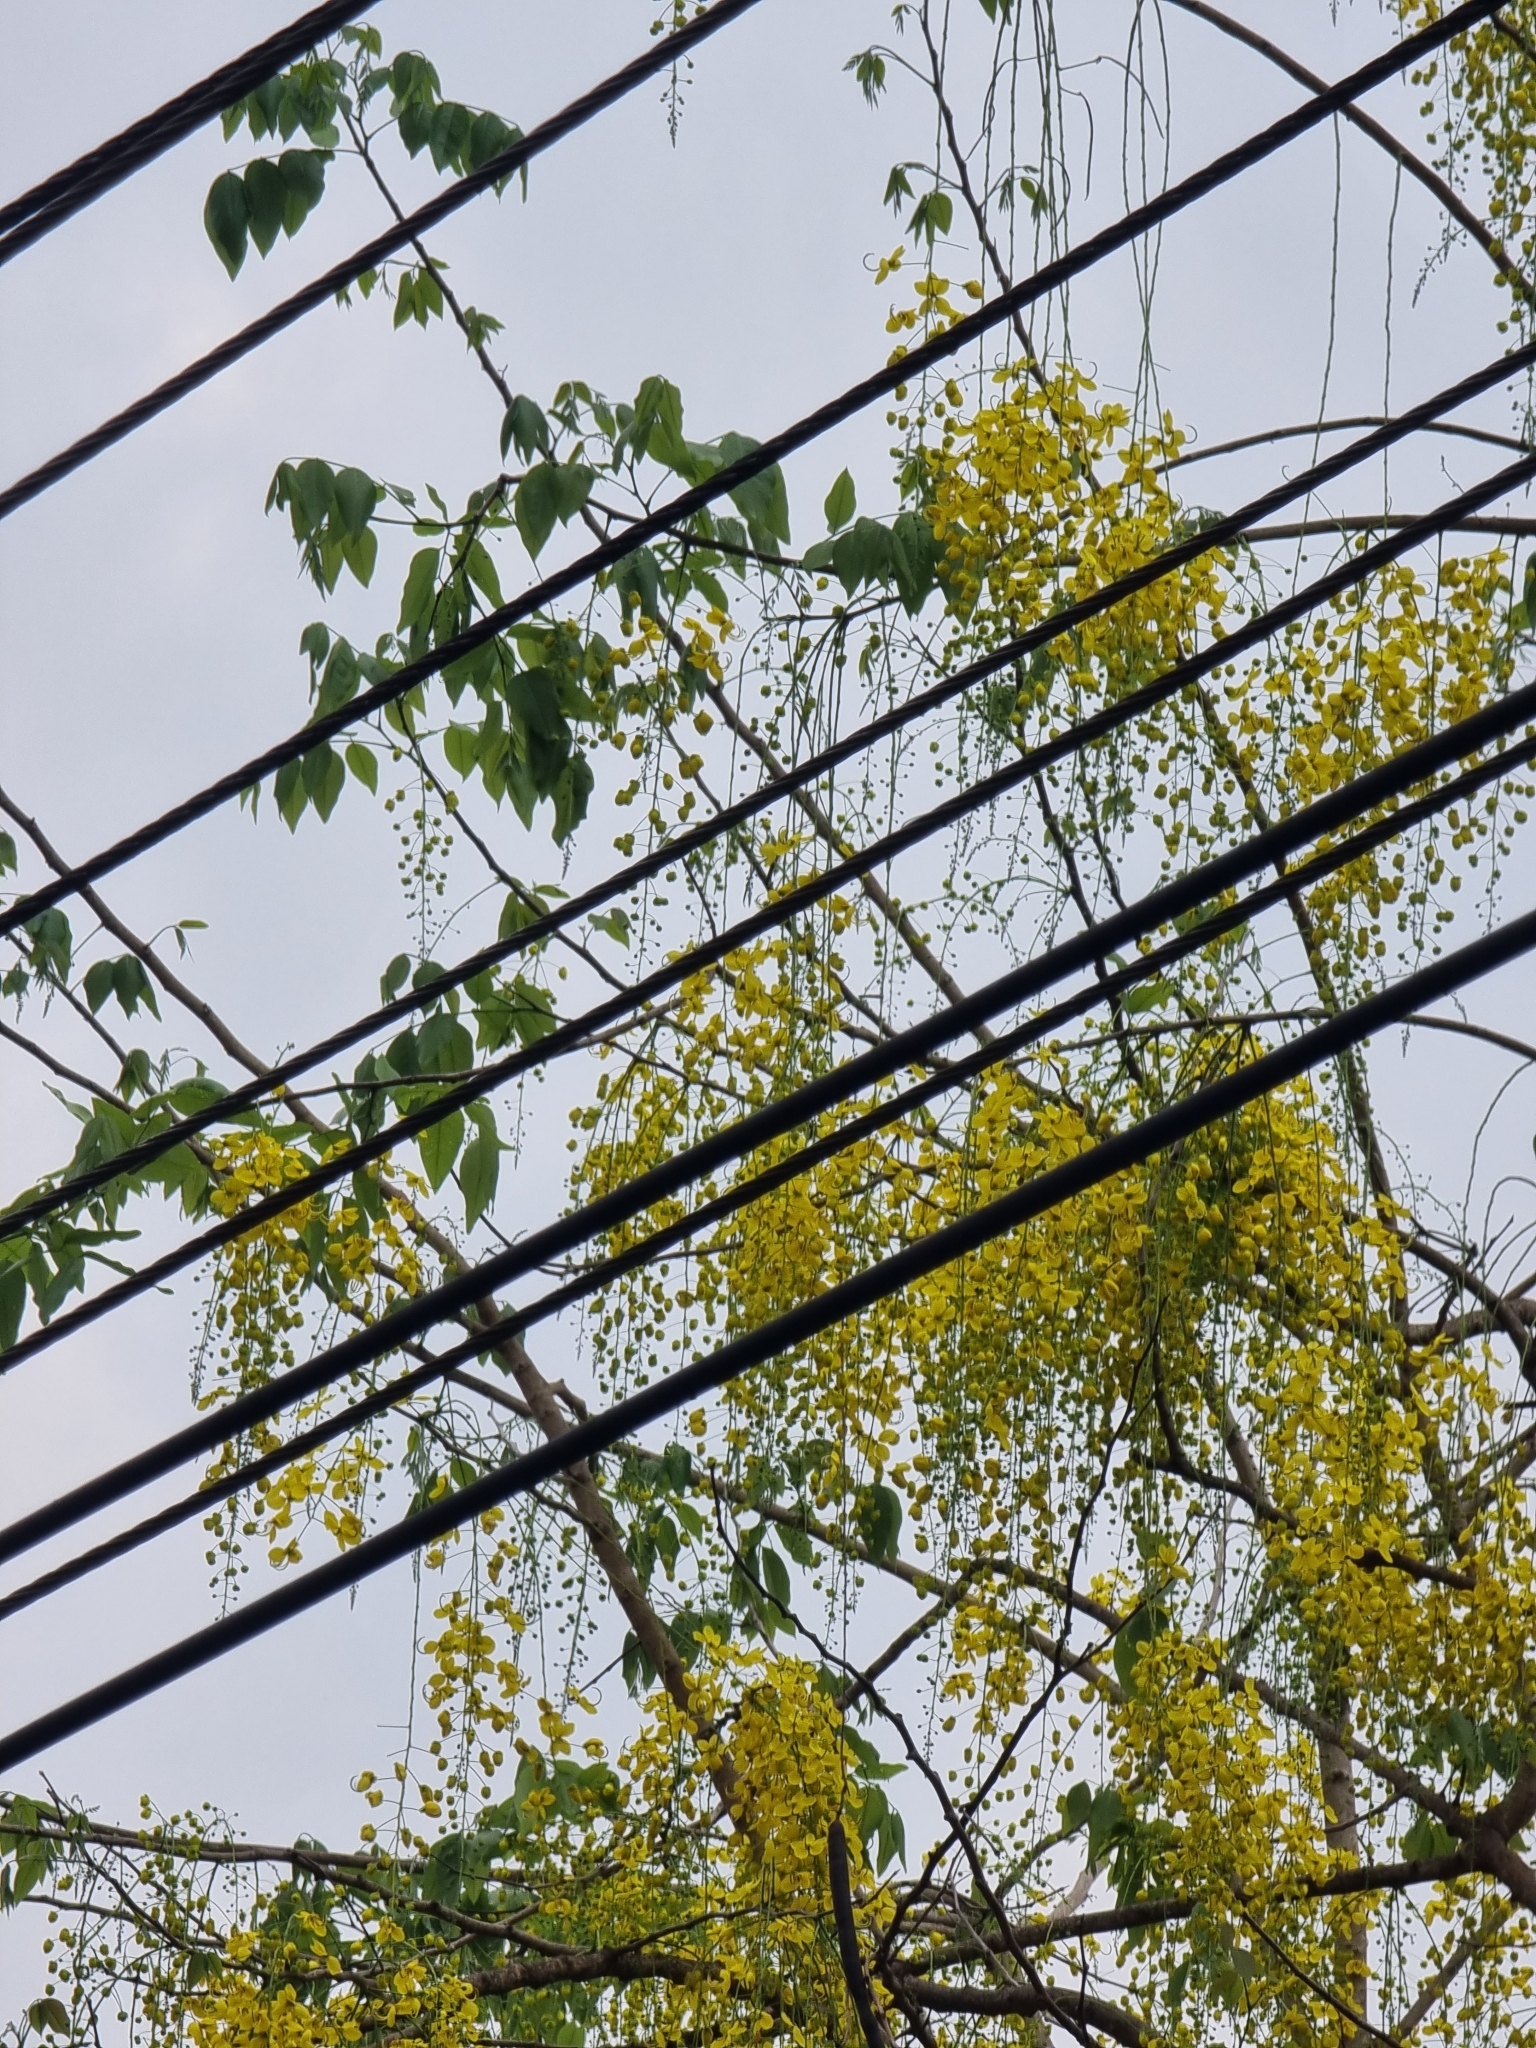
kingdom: Plantae
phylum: Tracheophyta
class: Magnoliopsida
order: Fabales
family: Fabaceae
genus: Cassia
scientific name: Cassia fistula
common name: Golden shower
